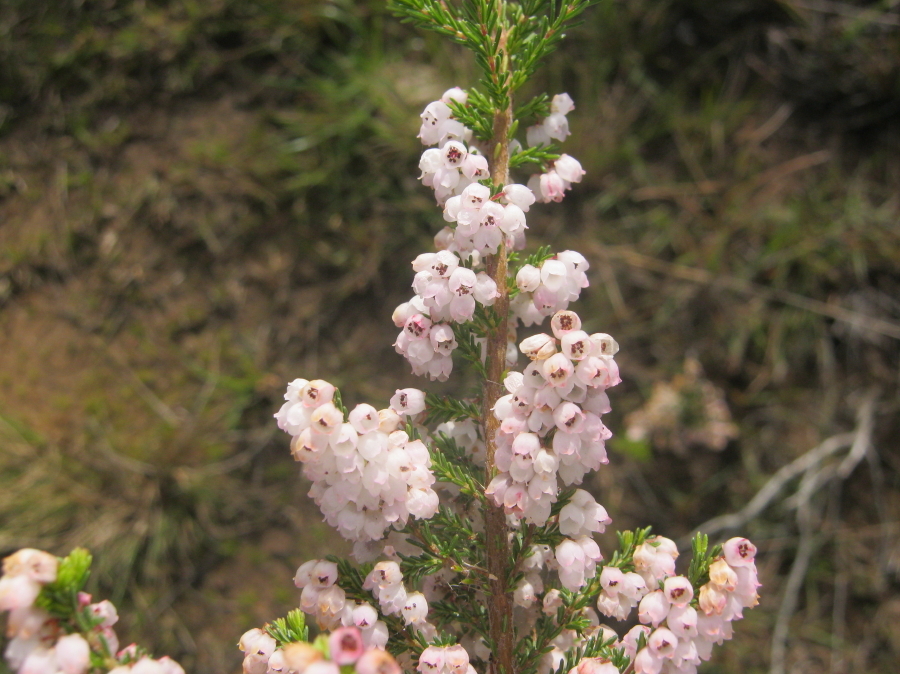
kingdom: Plantae
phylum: Tracheophyta
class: Magnoliopsida
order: Ericales
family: Ericaceae
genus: Erica
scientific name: Erica quadrangularis
